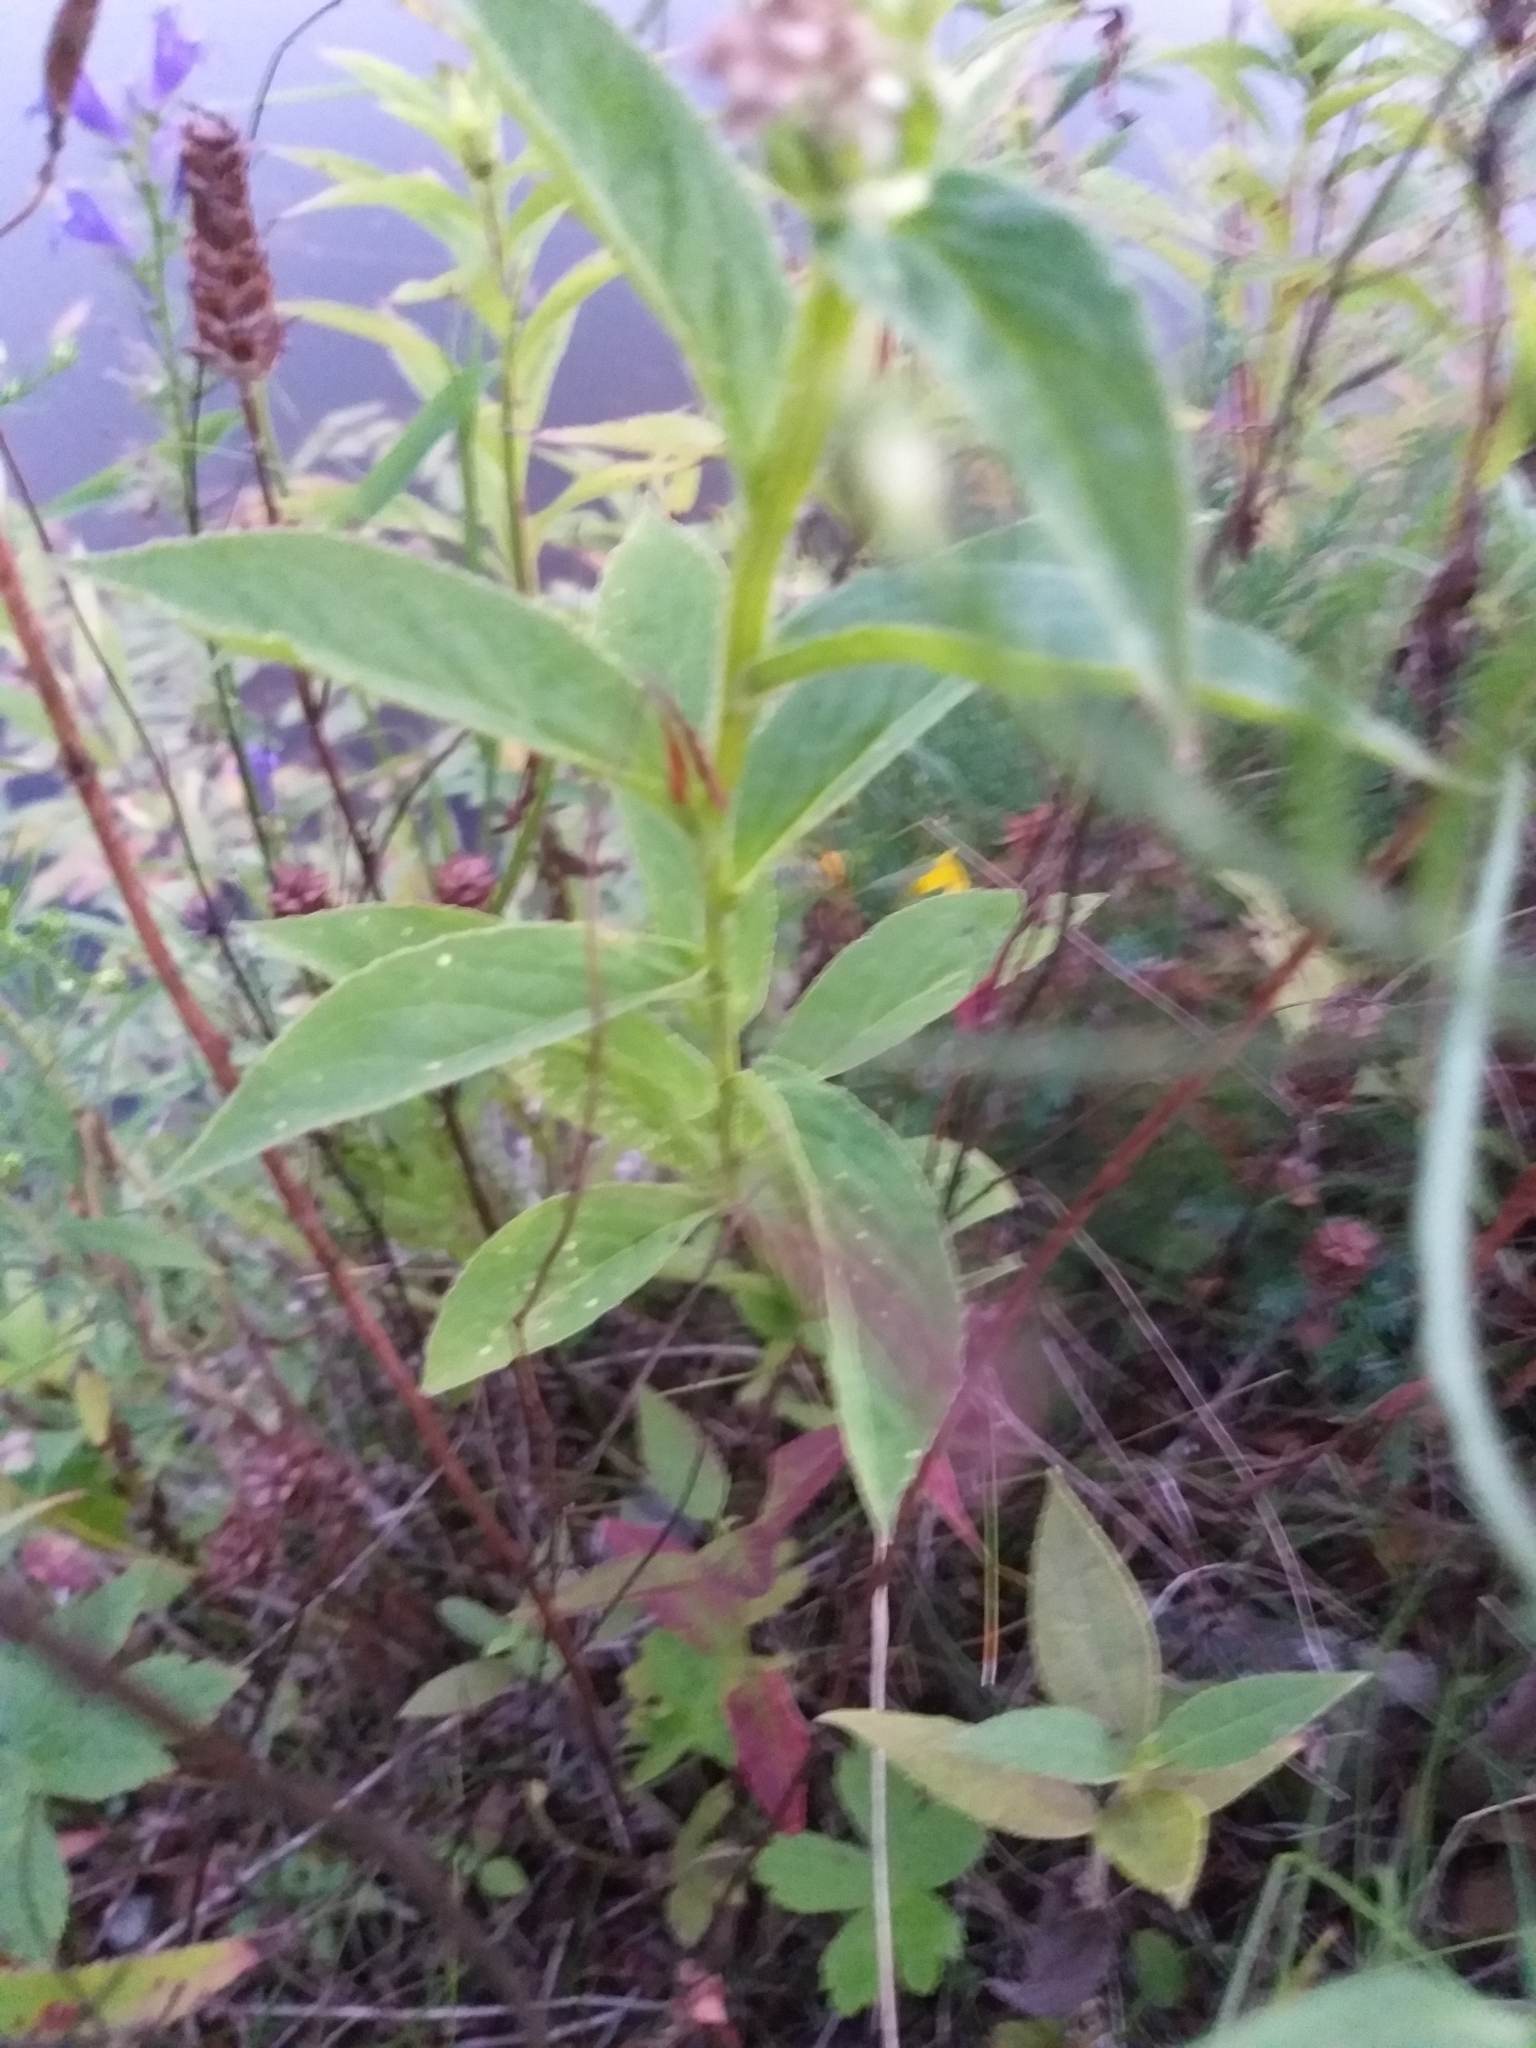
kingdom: Plantae
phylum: Tracheophyta
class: Magnoliopsida
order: Asterales
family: Campanulaceae
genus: Lobelia
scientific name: Lobelia siphilitica
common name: Great lobelia
